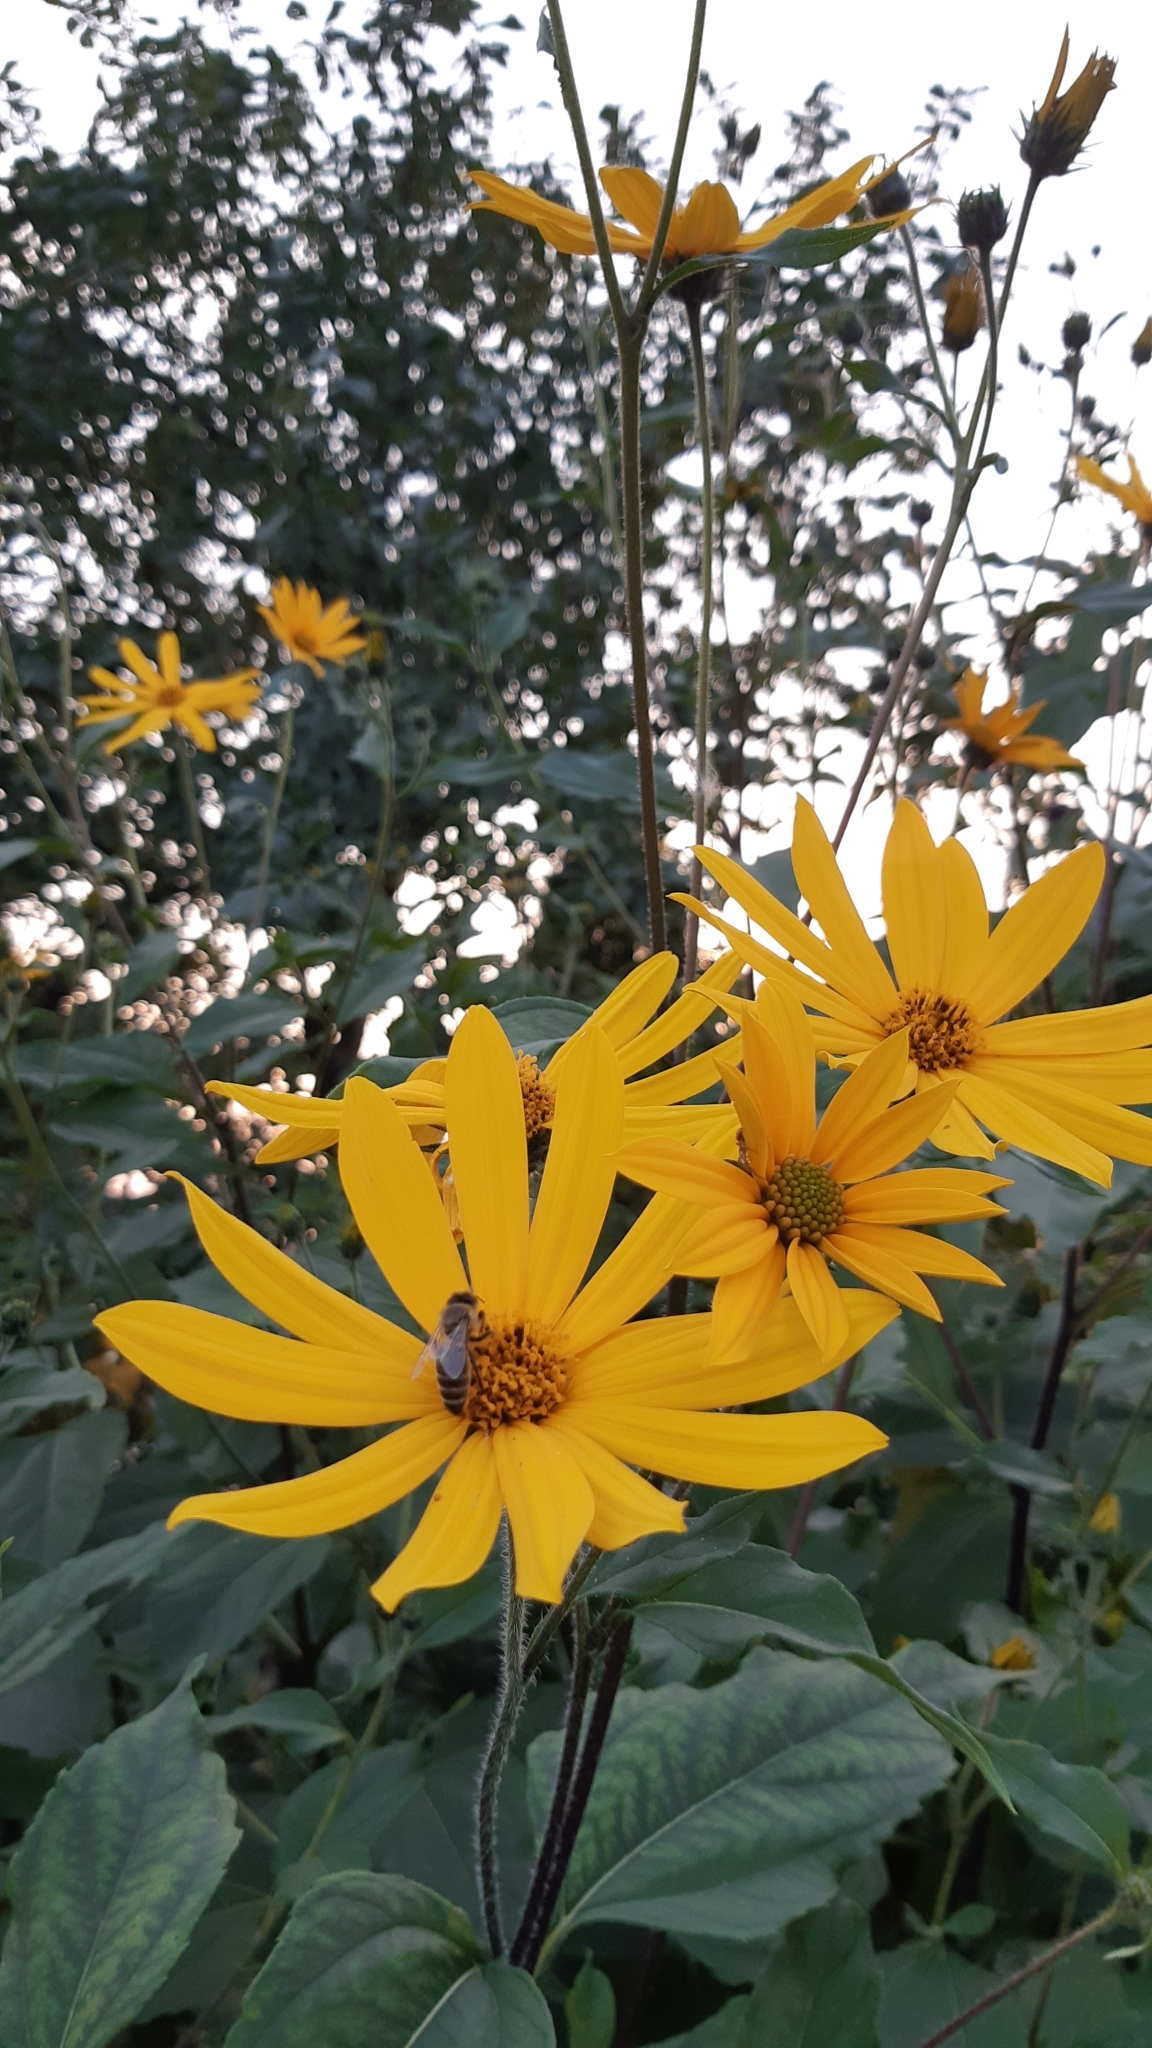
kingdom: Plantae
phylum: Tracheophyta
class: Magnoliopsida
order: Asterales
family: Asteraceae
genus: Helianthus
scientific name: Helianthus tuberosus
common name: Jerusalem artichoke
